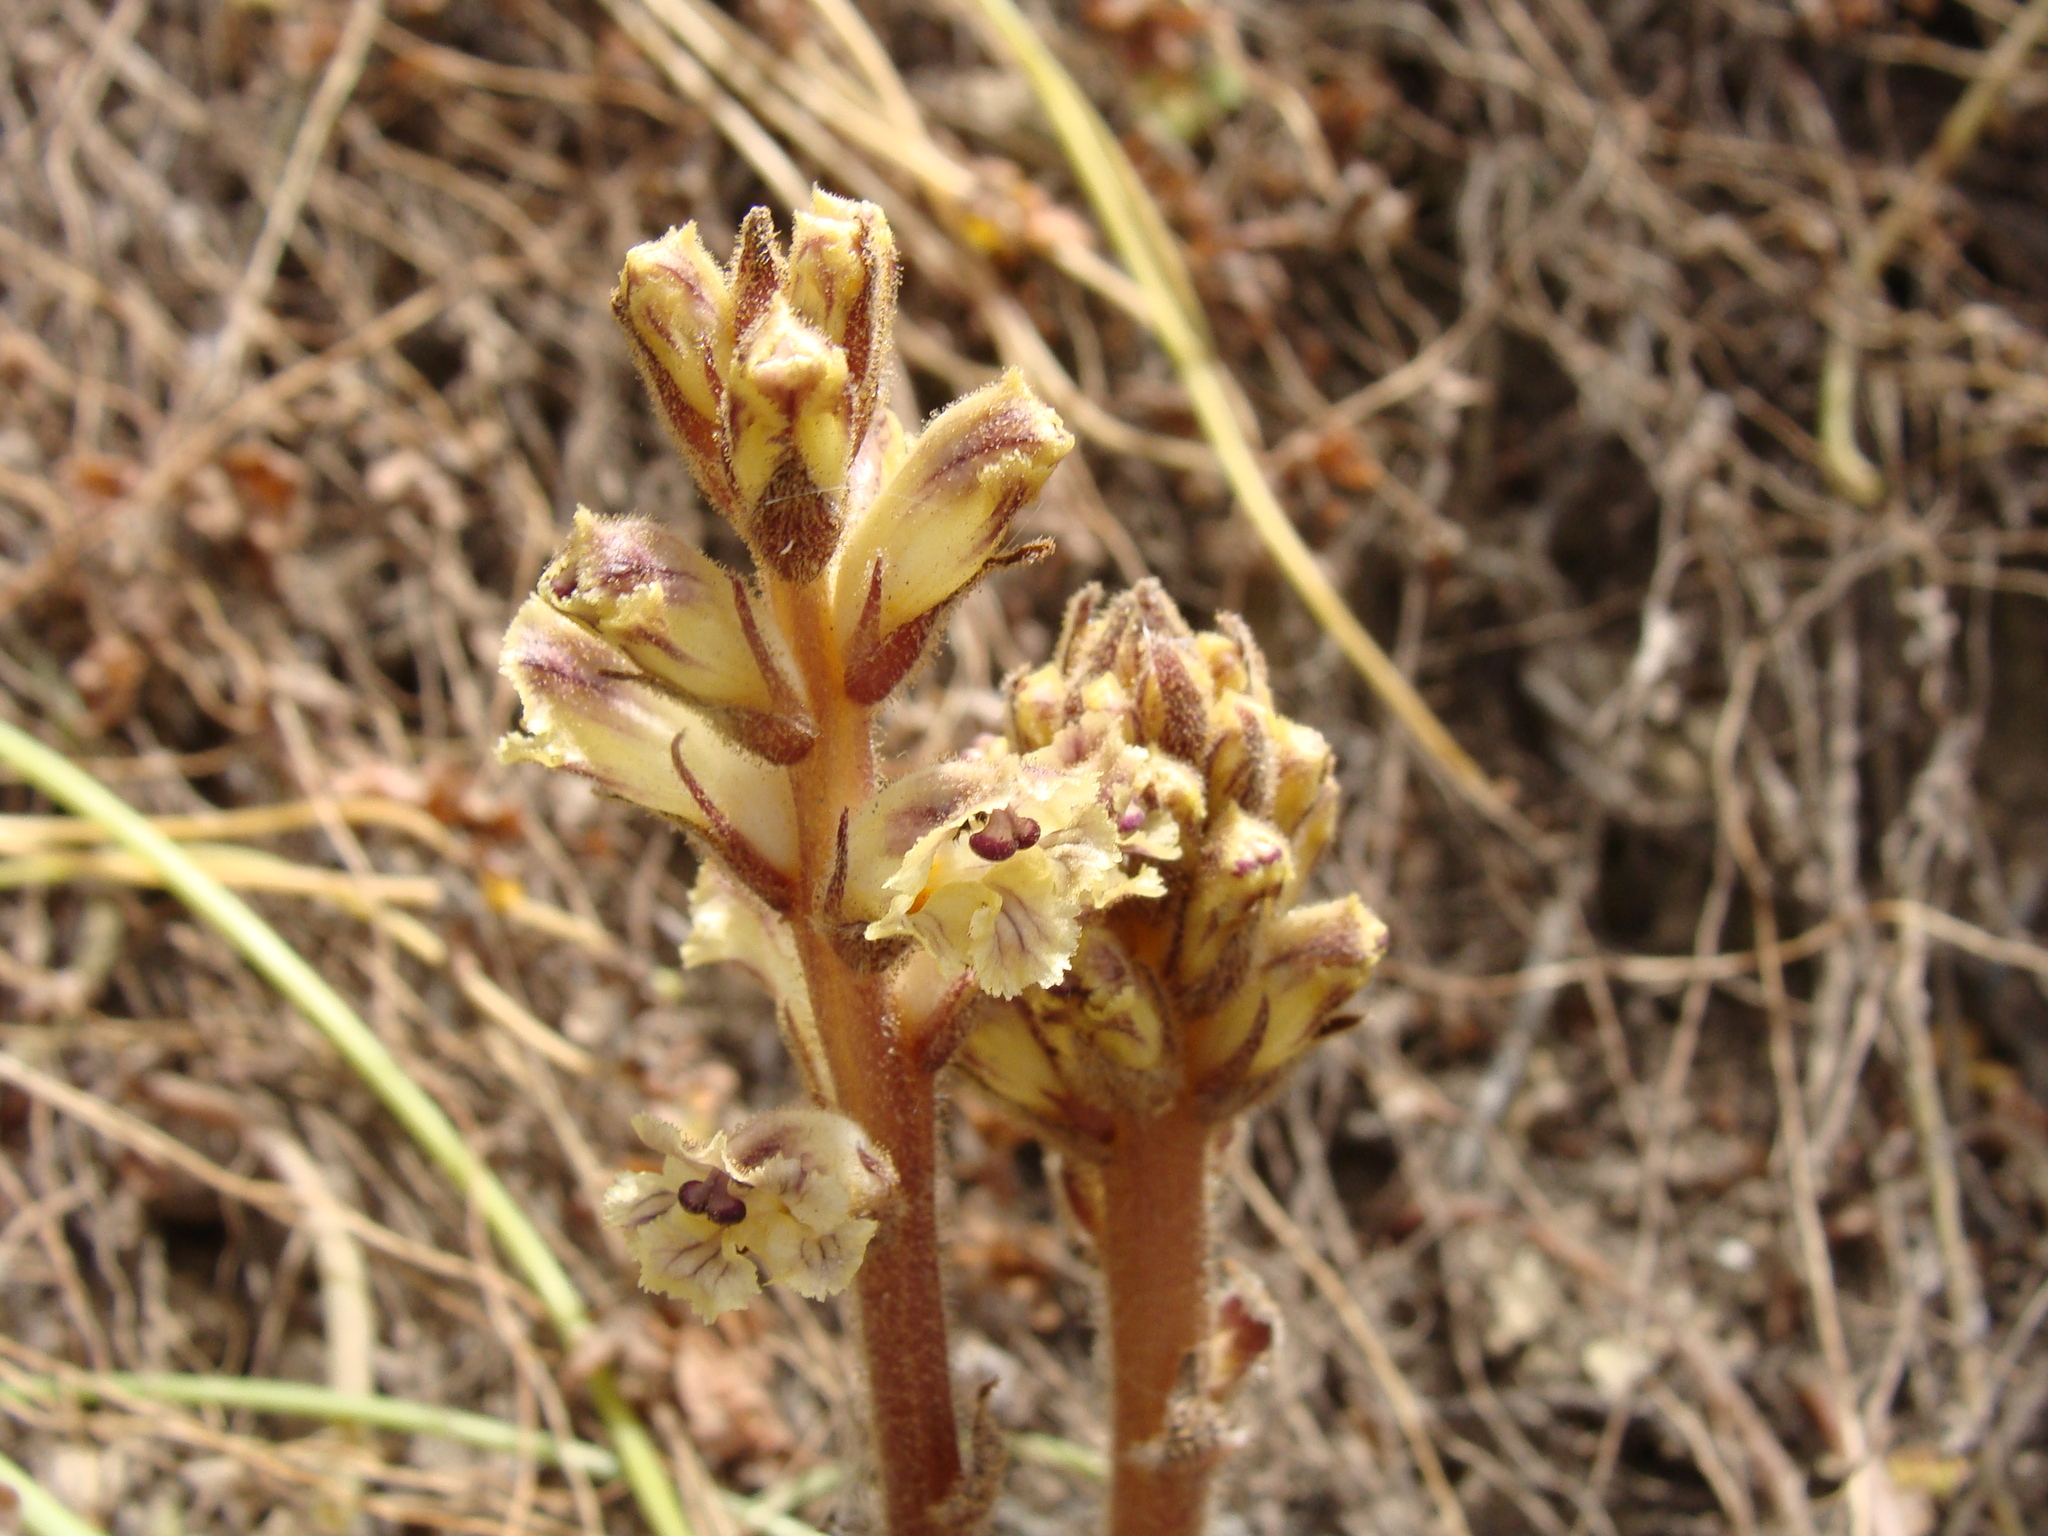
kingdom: Plantae
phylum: Tracheophyta
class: Magnoliopsida
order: Lamiales
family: Orobanchaceae
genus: Orobanche
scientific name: Orobanche litorea
